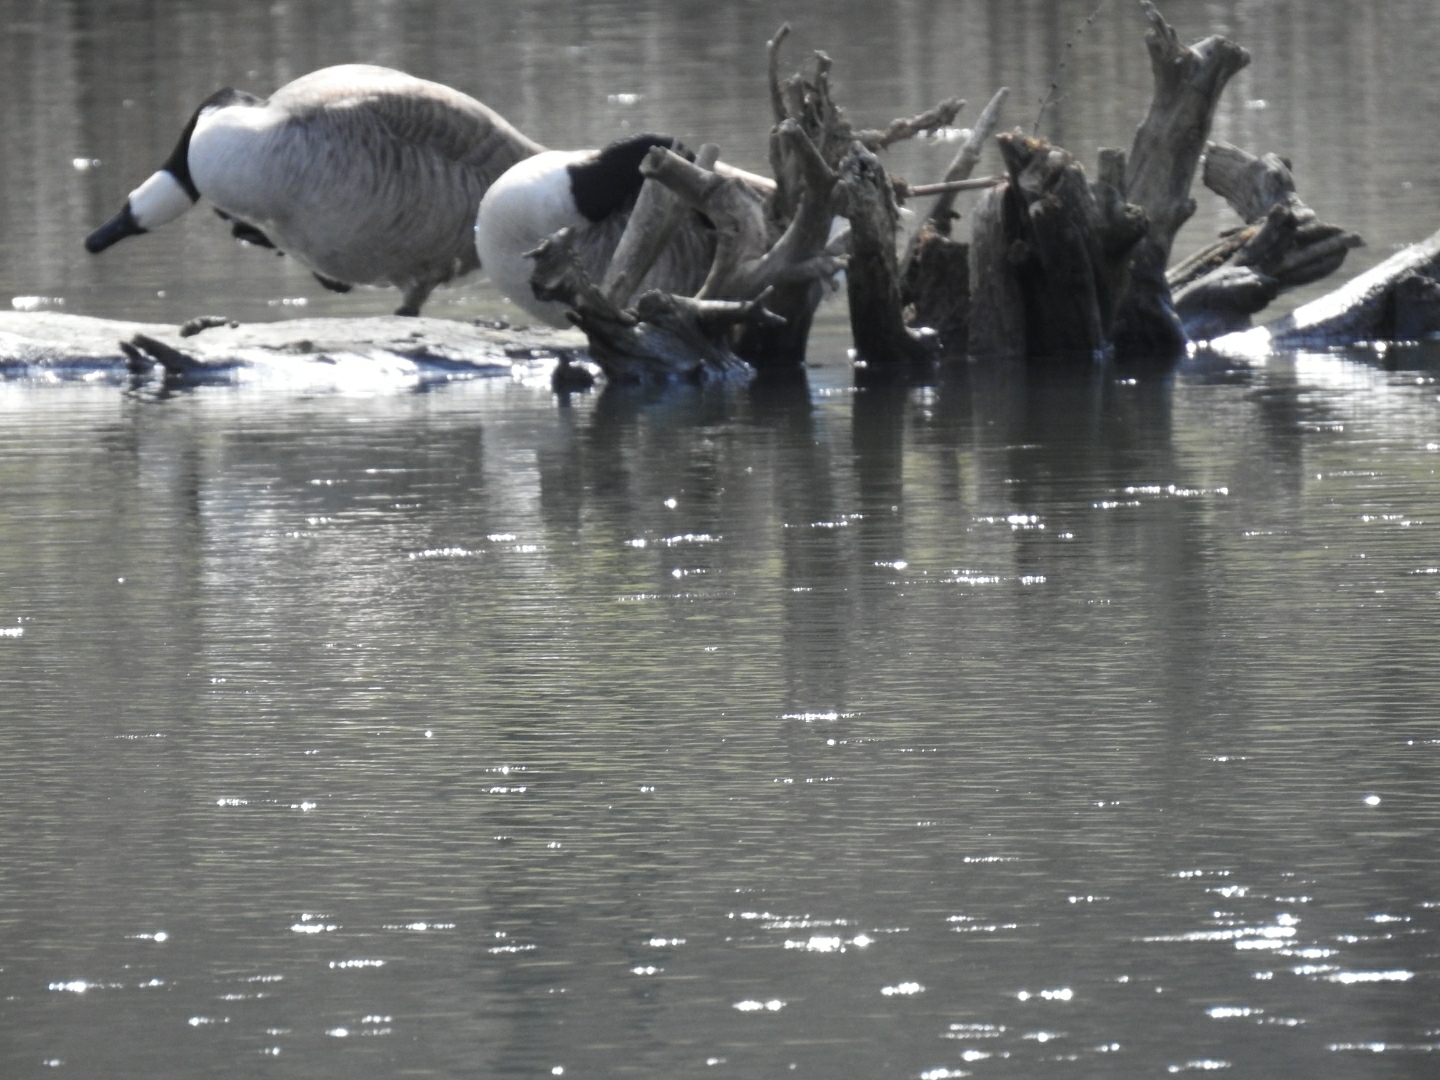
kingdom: Animalia
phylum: Chordata
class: Aves
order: Anseriformes
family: Anatidae
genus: Branta
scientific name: Branta canadensis
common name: Canada goose
